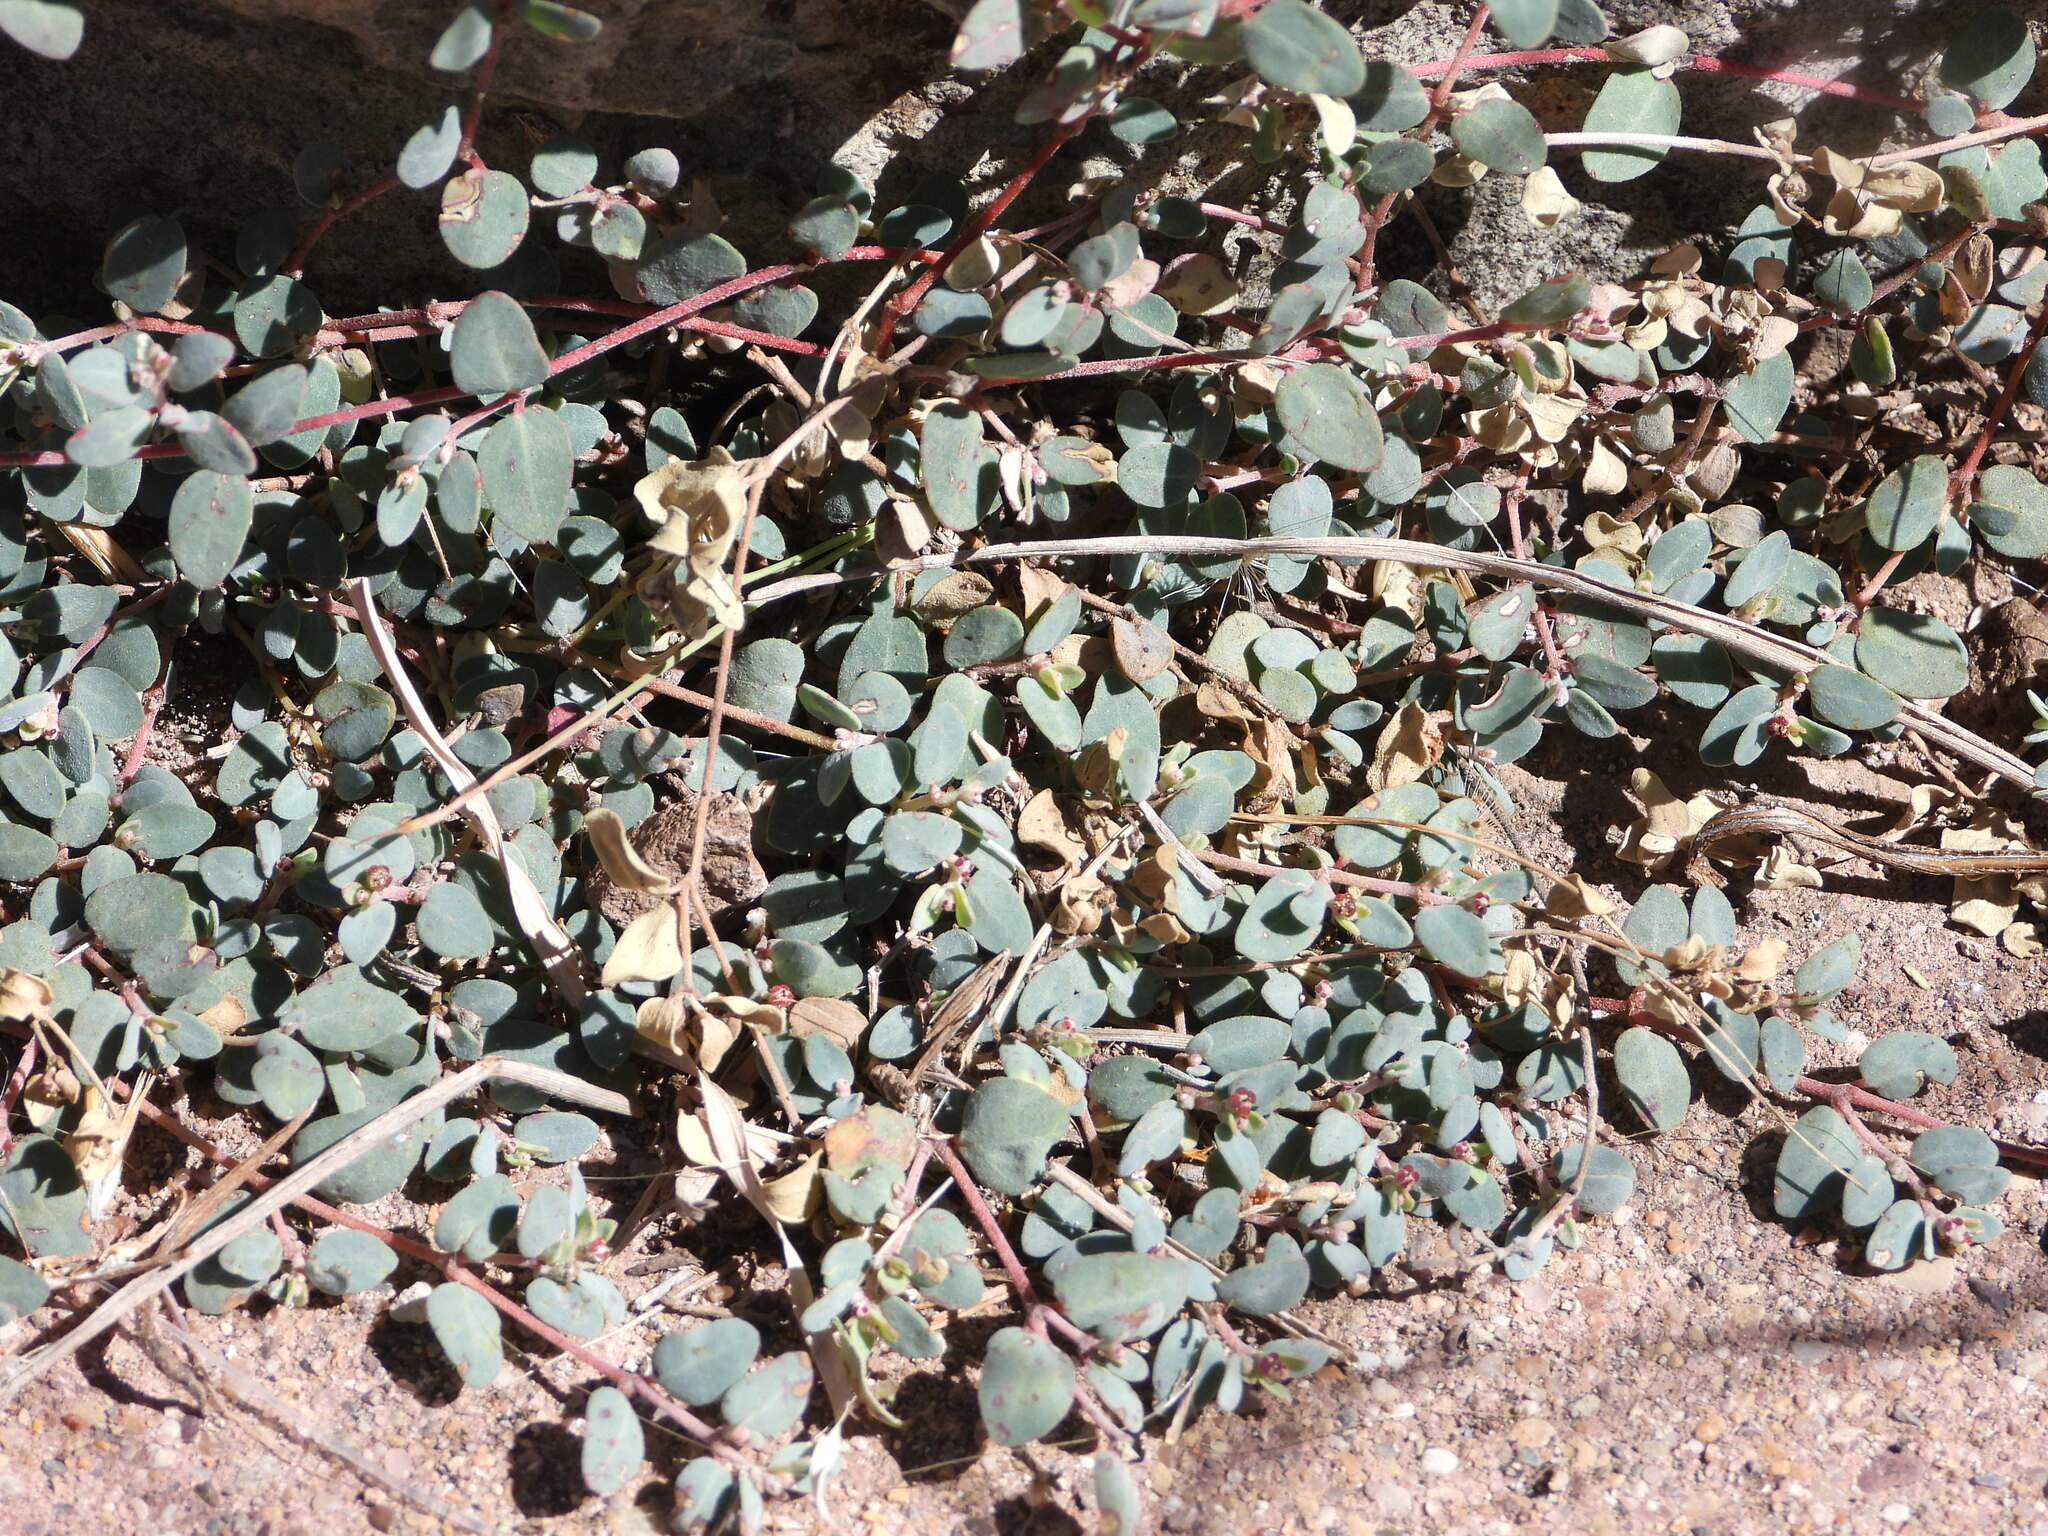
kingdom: Plantae
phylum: Tracheophyta
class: Magnoliopsida
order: Malpighiales
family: Euphorbiaceae
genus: Euphorbia
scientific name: Euphorbia cinerascens
